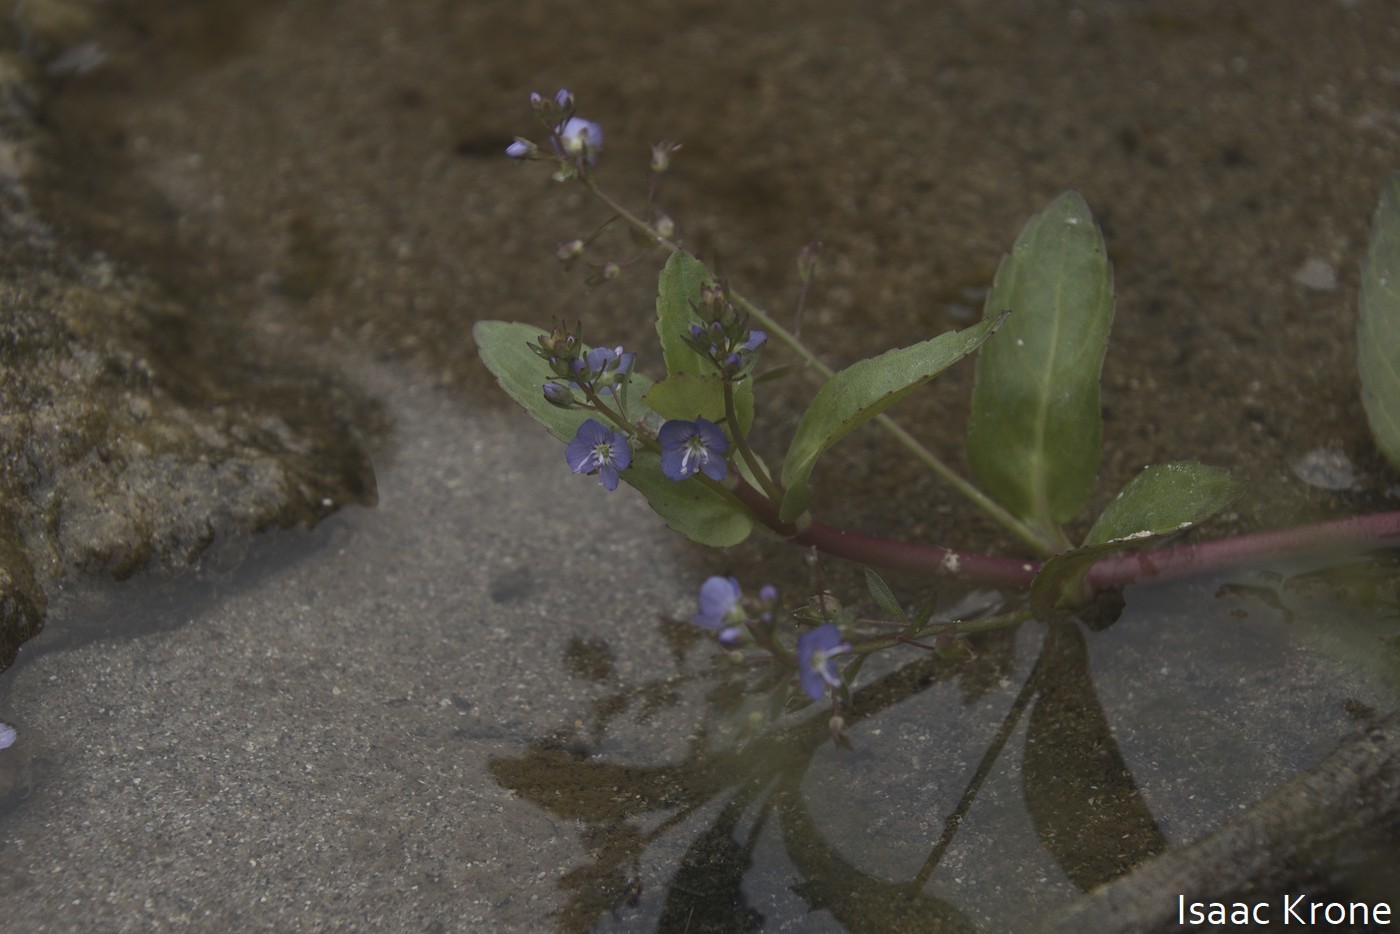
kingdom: Plantae
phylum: Tracheophyta
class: Magnoliopsida
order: Lamiales
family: Plantaginaceae
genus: Veronica
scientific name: Veronica americana
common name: American brooklime
